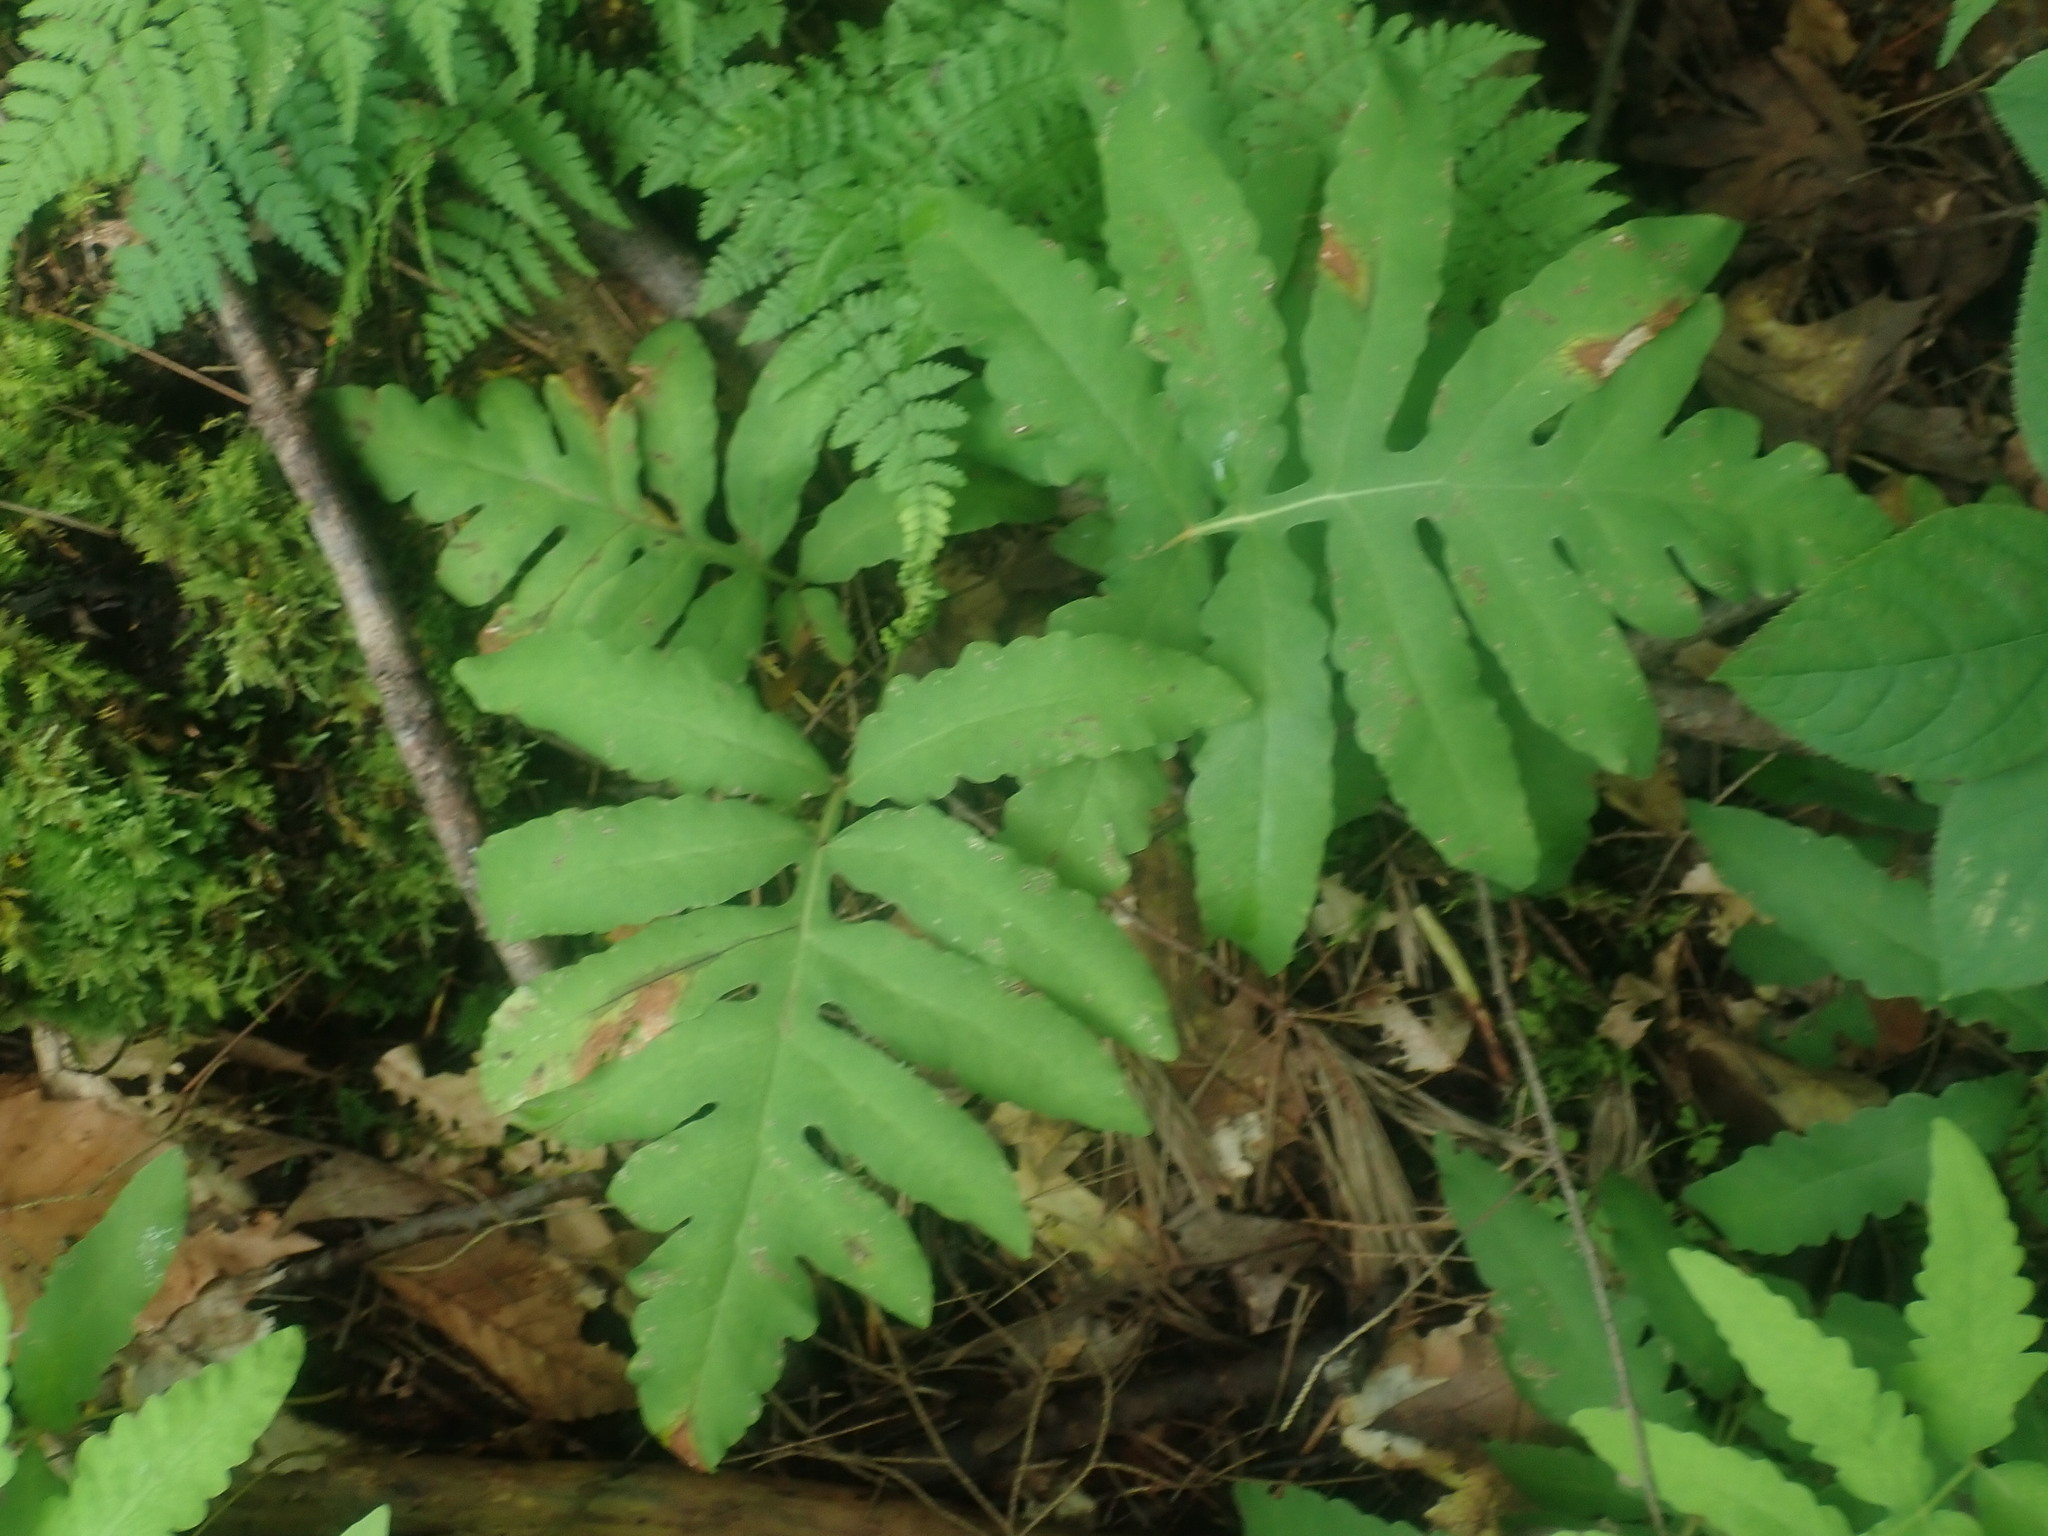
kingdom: Plantae
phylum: Tracheophyta
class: Polypodiopsida
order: Polypodiales
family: Onocleaceae
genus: Onoclea
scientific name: Onoclea sensibilis
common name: Sensitive fern
